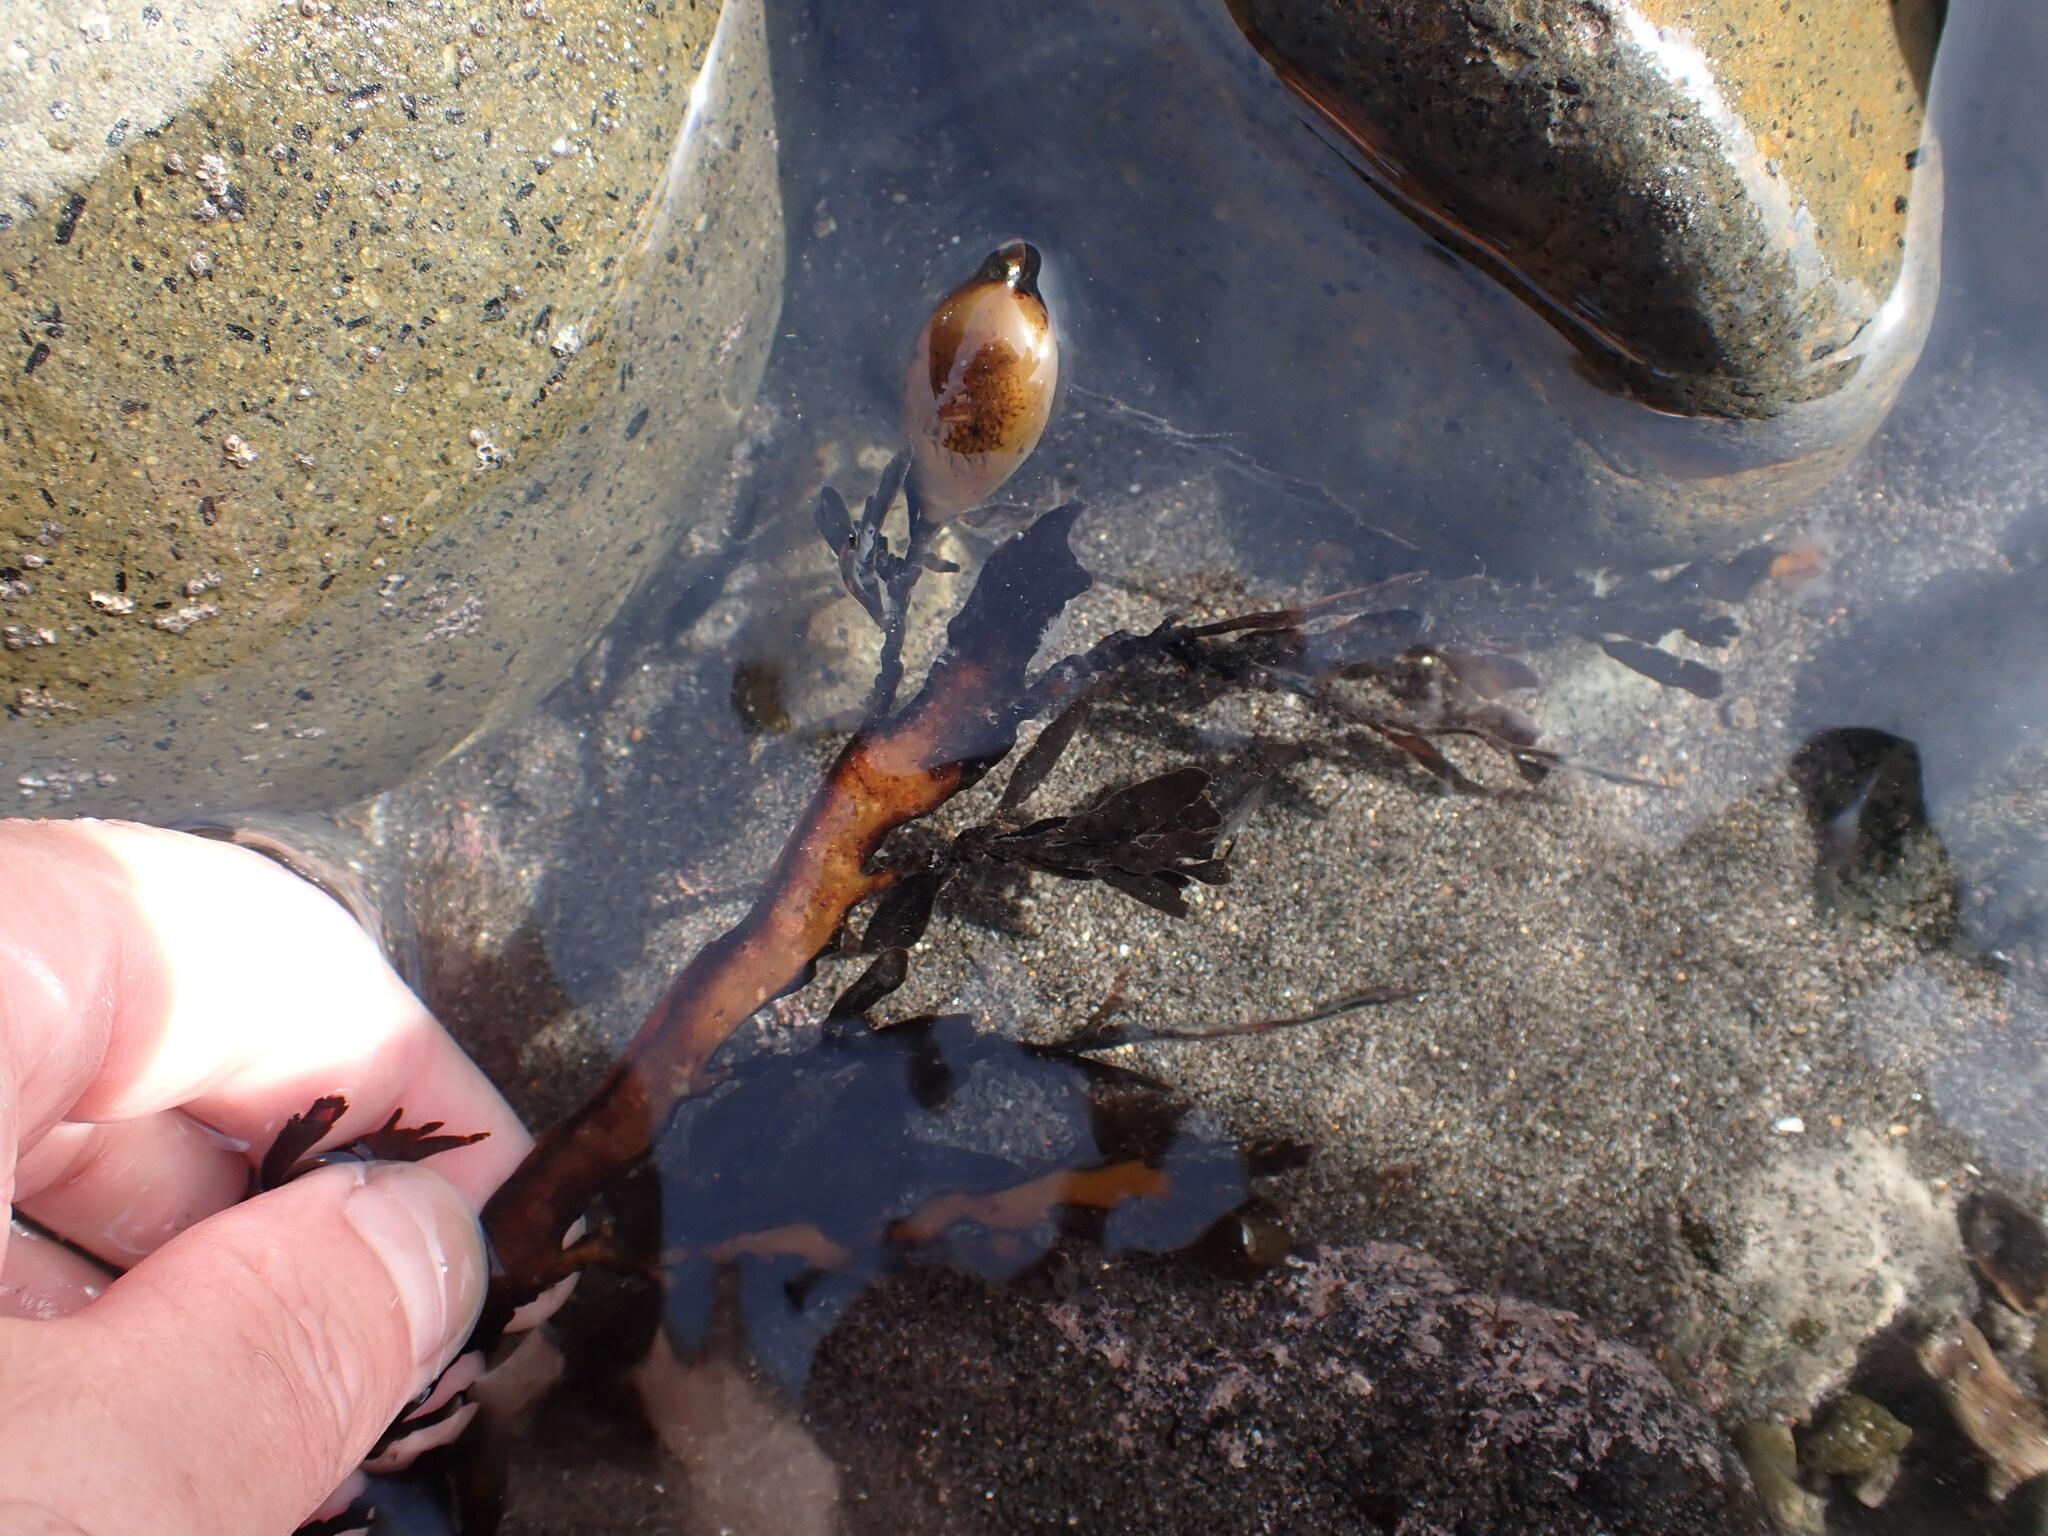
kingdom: Chromista
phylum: Ochrophyta
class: Phaeophyceae
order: Fucales
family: Sargassaceae
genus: Carpophyllum
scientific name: Carpophyllum maschalocarpum
